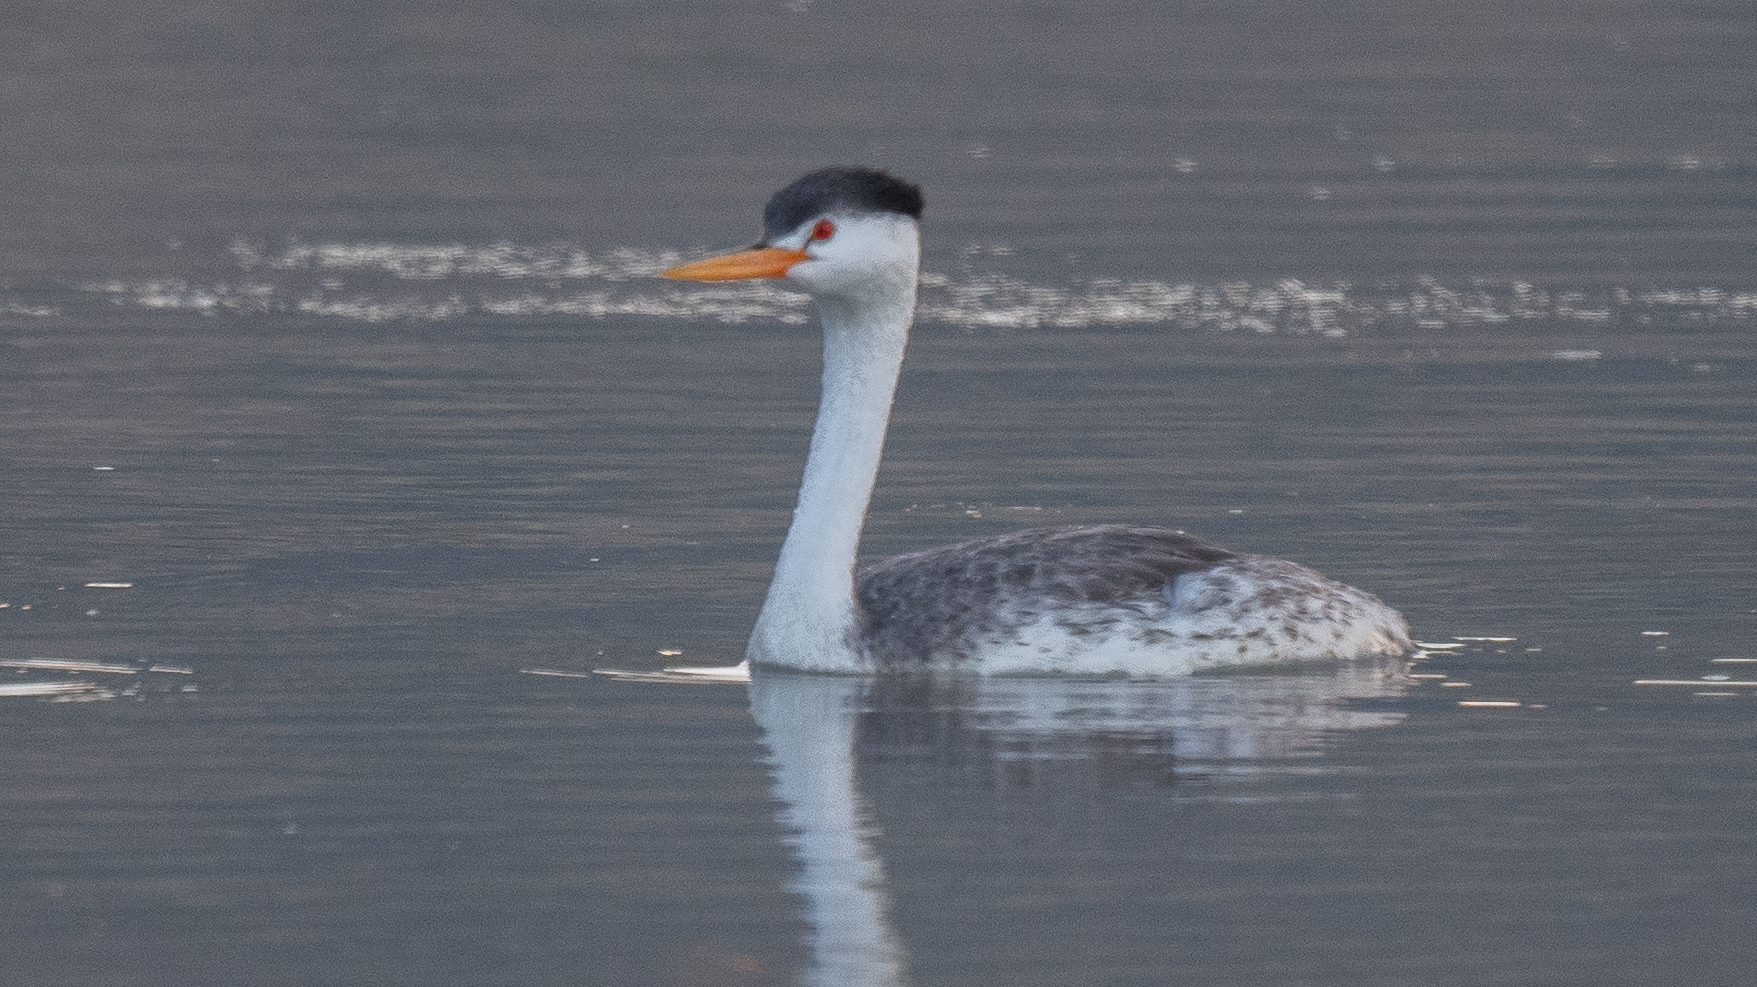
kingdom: Animalia
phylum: Chordata
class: Aves
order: Podicipediformes
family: Podicipedidae
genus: Aechmophorus
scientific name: Aechmophorus clarkii
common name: Clark's grebe
